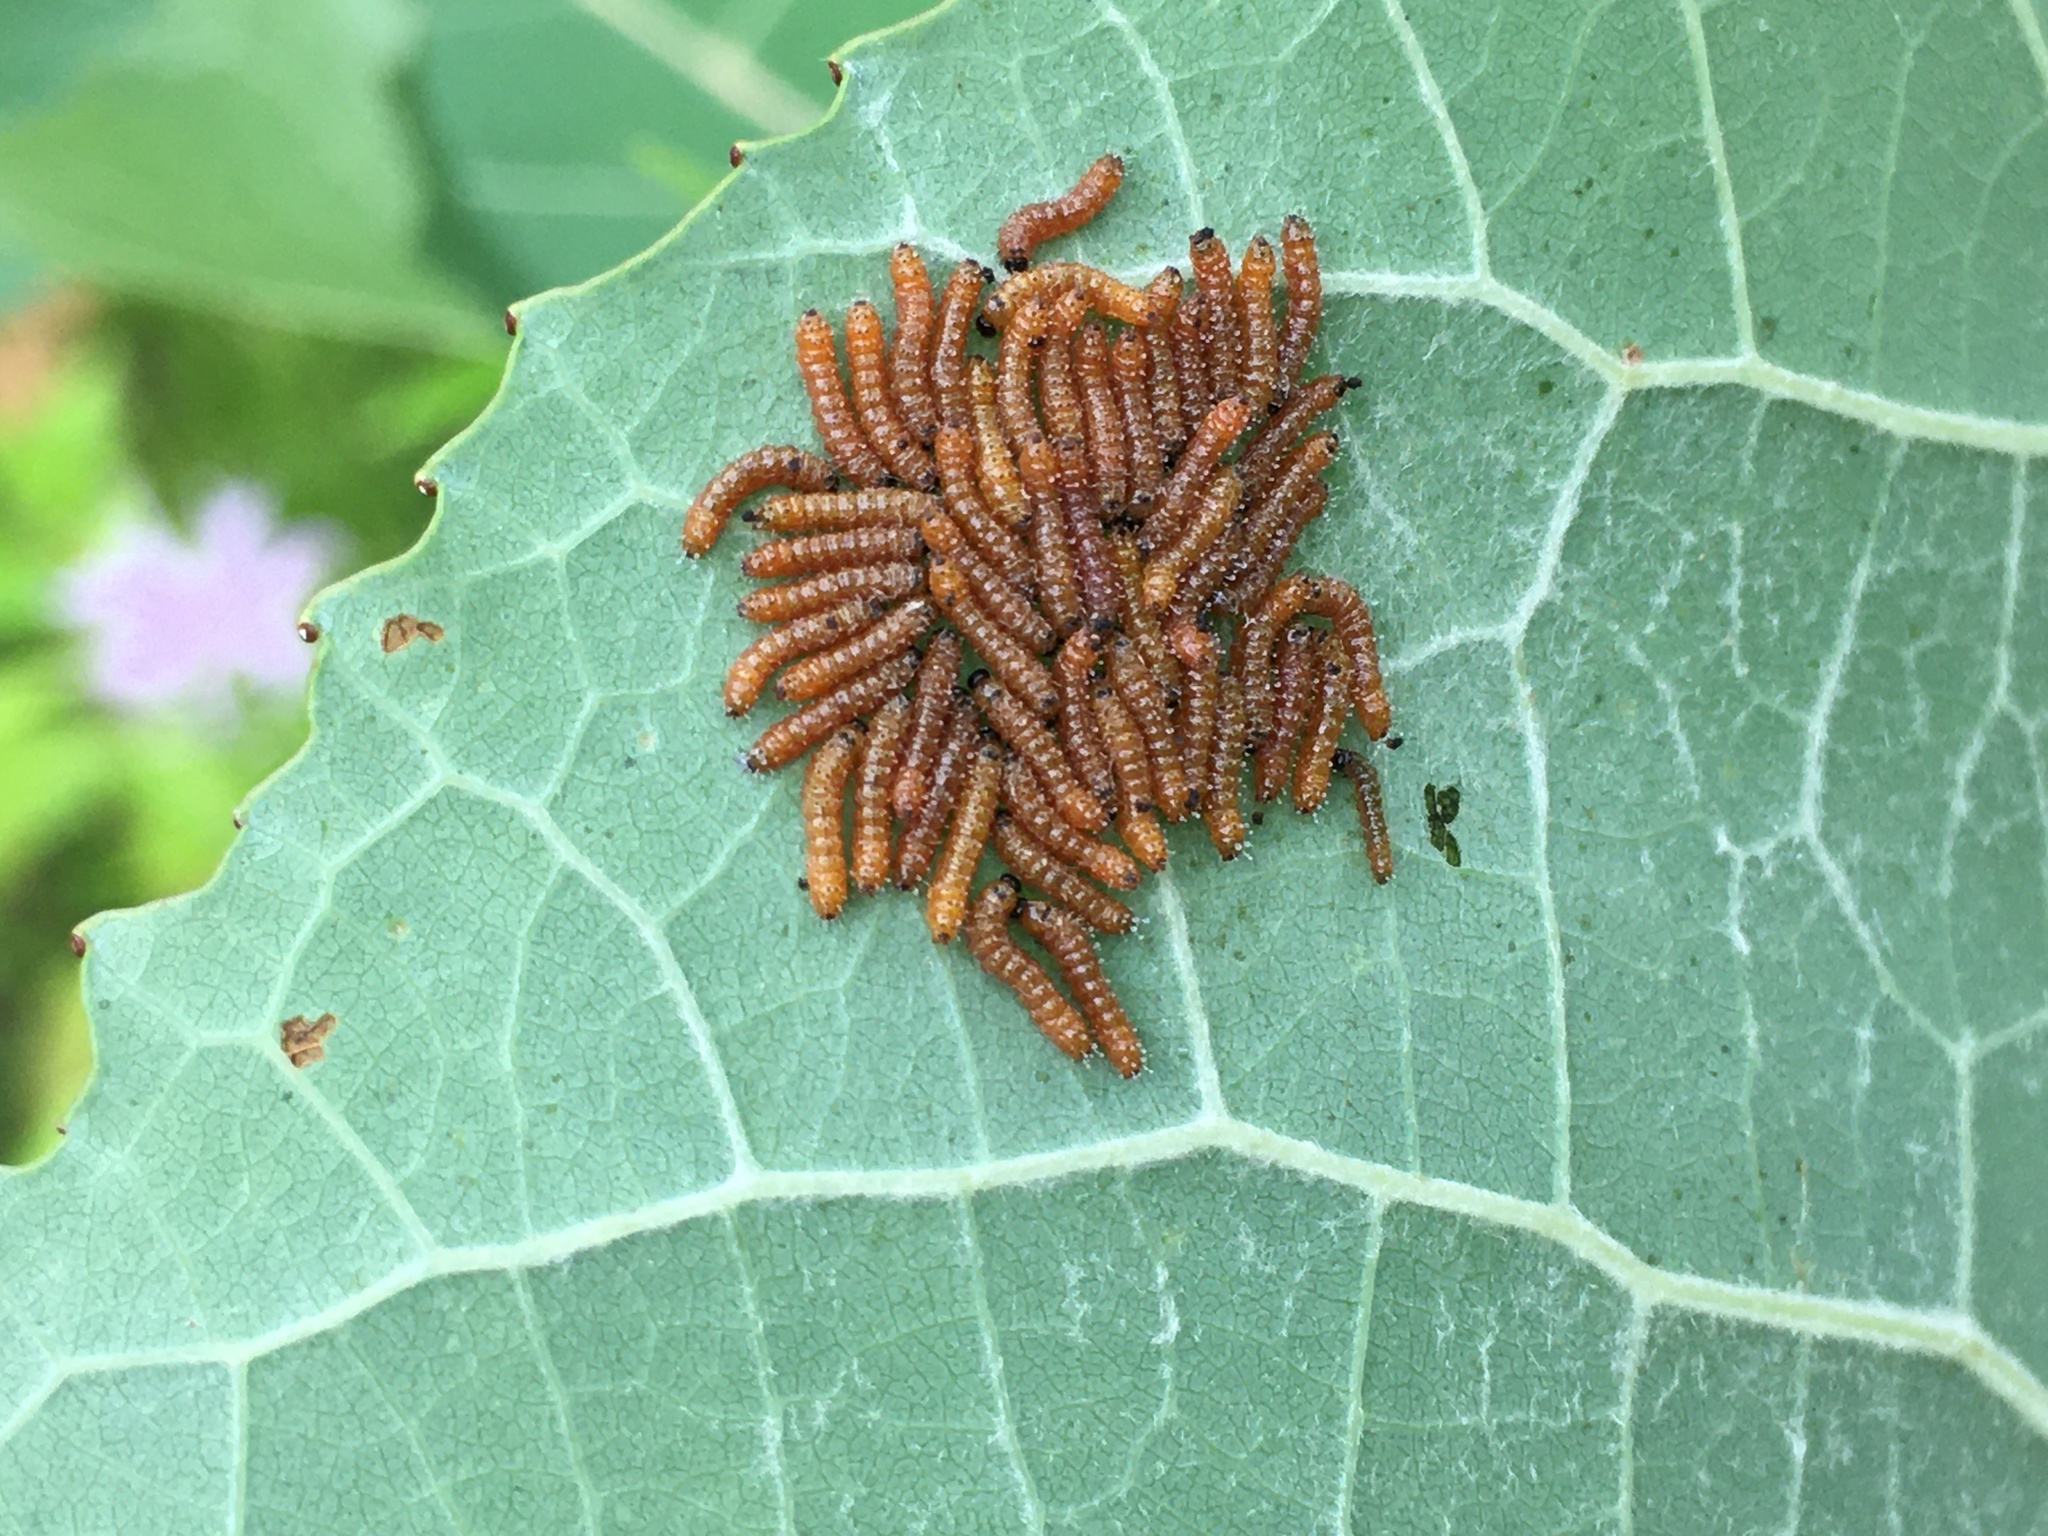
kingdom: Animalia
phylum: Arthropoda
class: Insecta
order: Lepidoptera
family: Notodontidae
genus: Schizura
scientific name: Schizura
